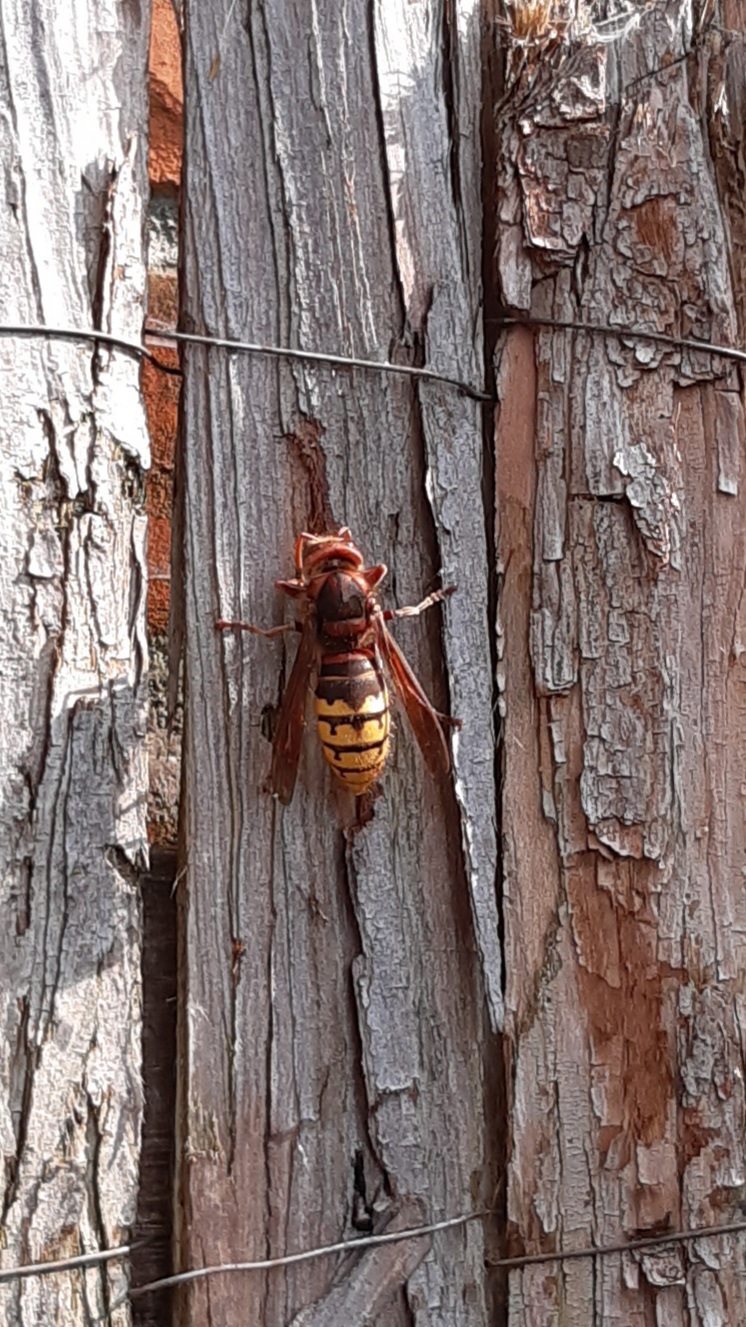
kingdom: Animalia
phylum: Arthropoda
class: Insecta
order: Hymenoptera
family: Vespidae
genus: Vespa
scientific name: Vespa crabro
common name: Hornet
